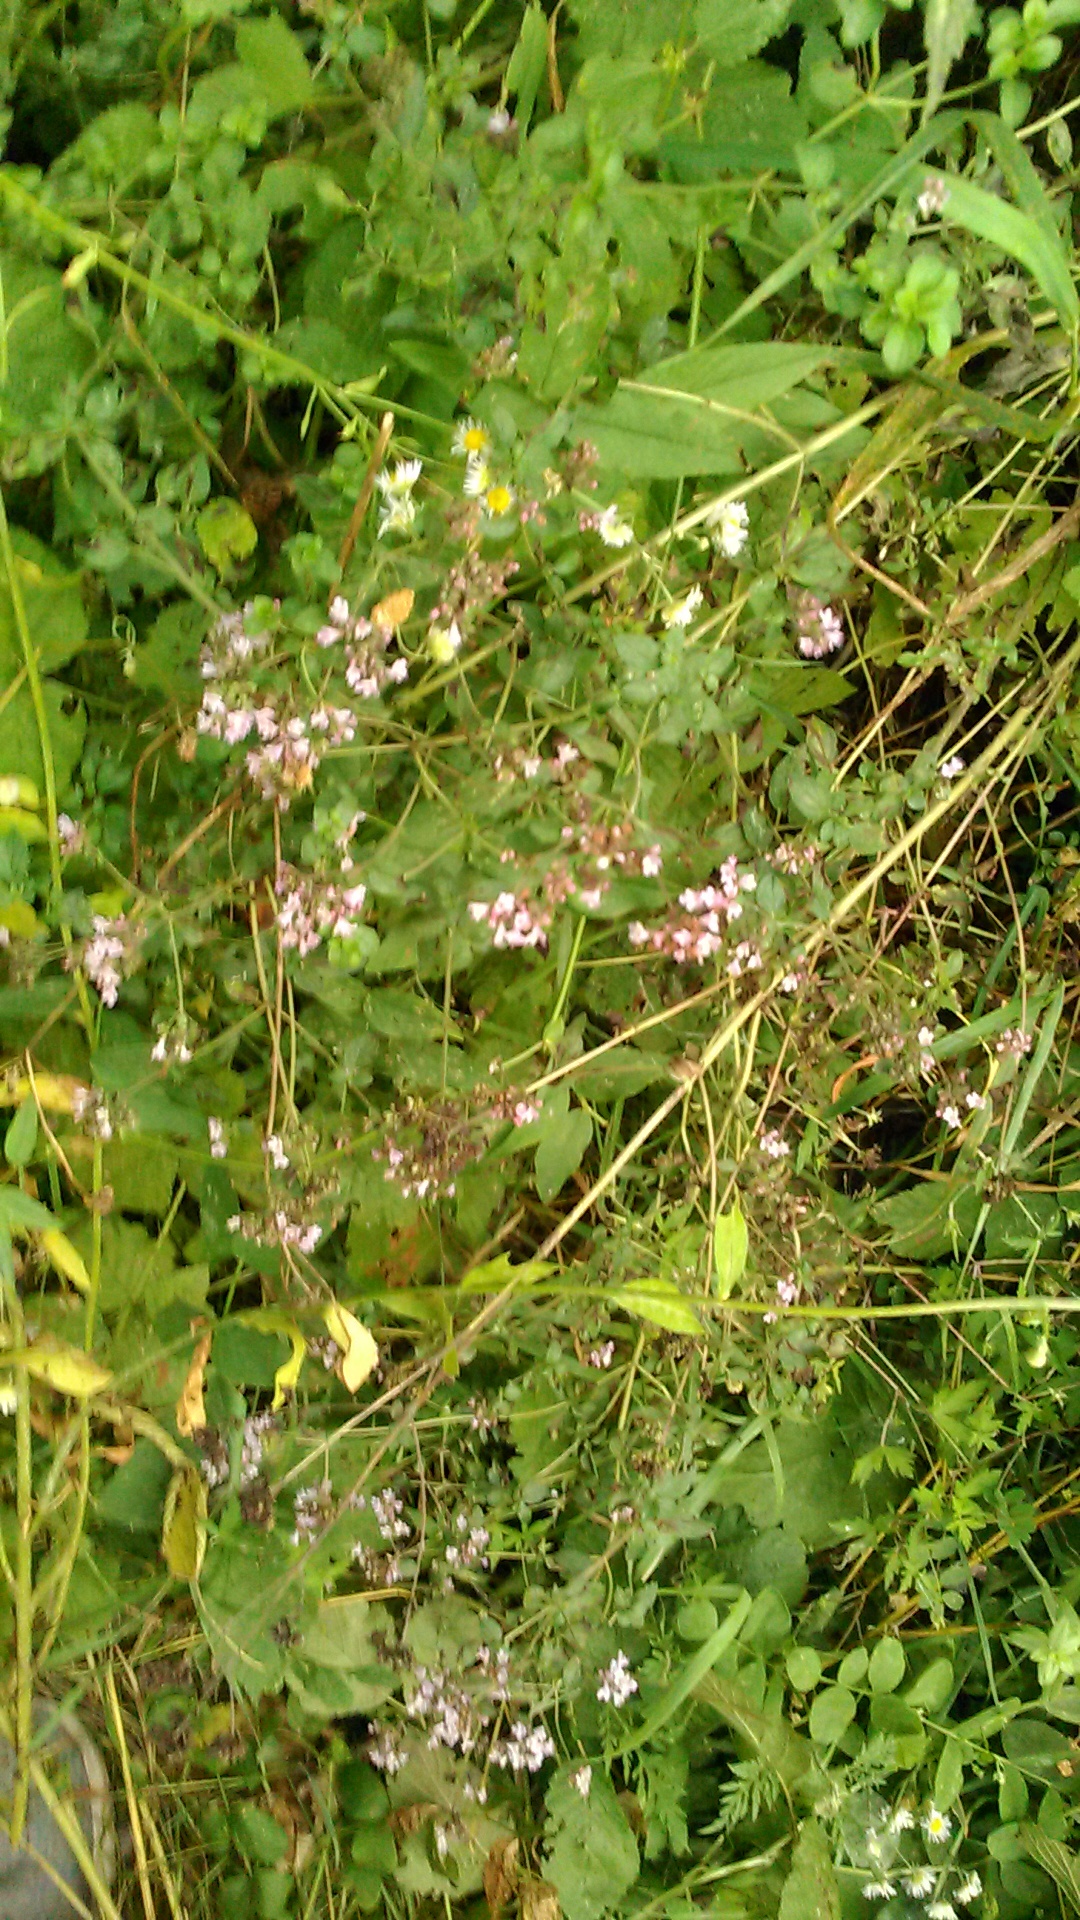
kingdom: Plantae
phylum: Tracheophyta
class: Magnoliopsida
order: Lamiales
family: Lamiaceae
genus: Origanum
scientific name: Origanum vulgare
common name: Wild marjoram
